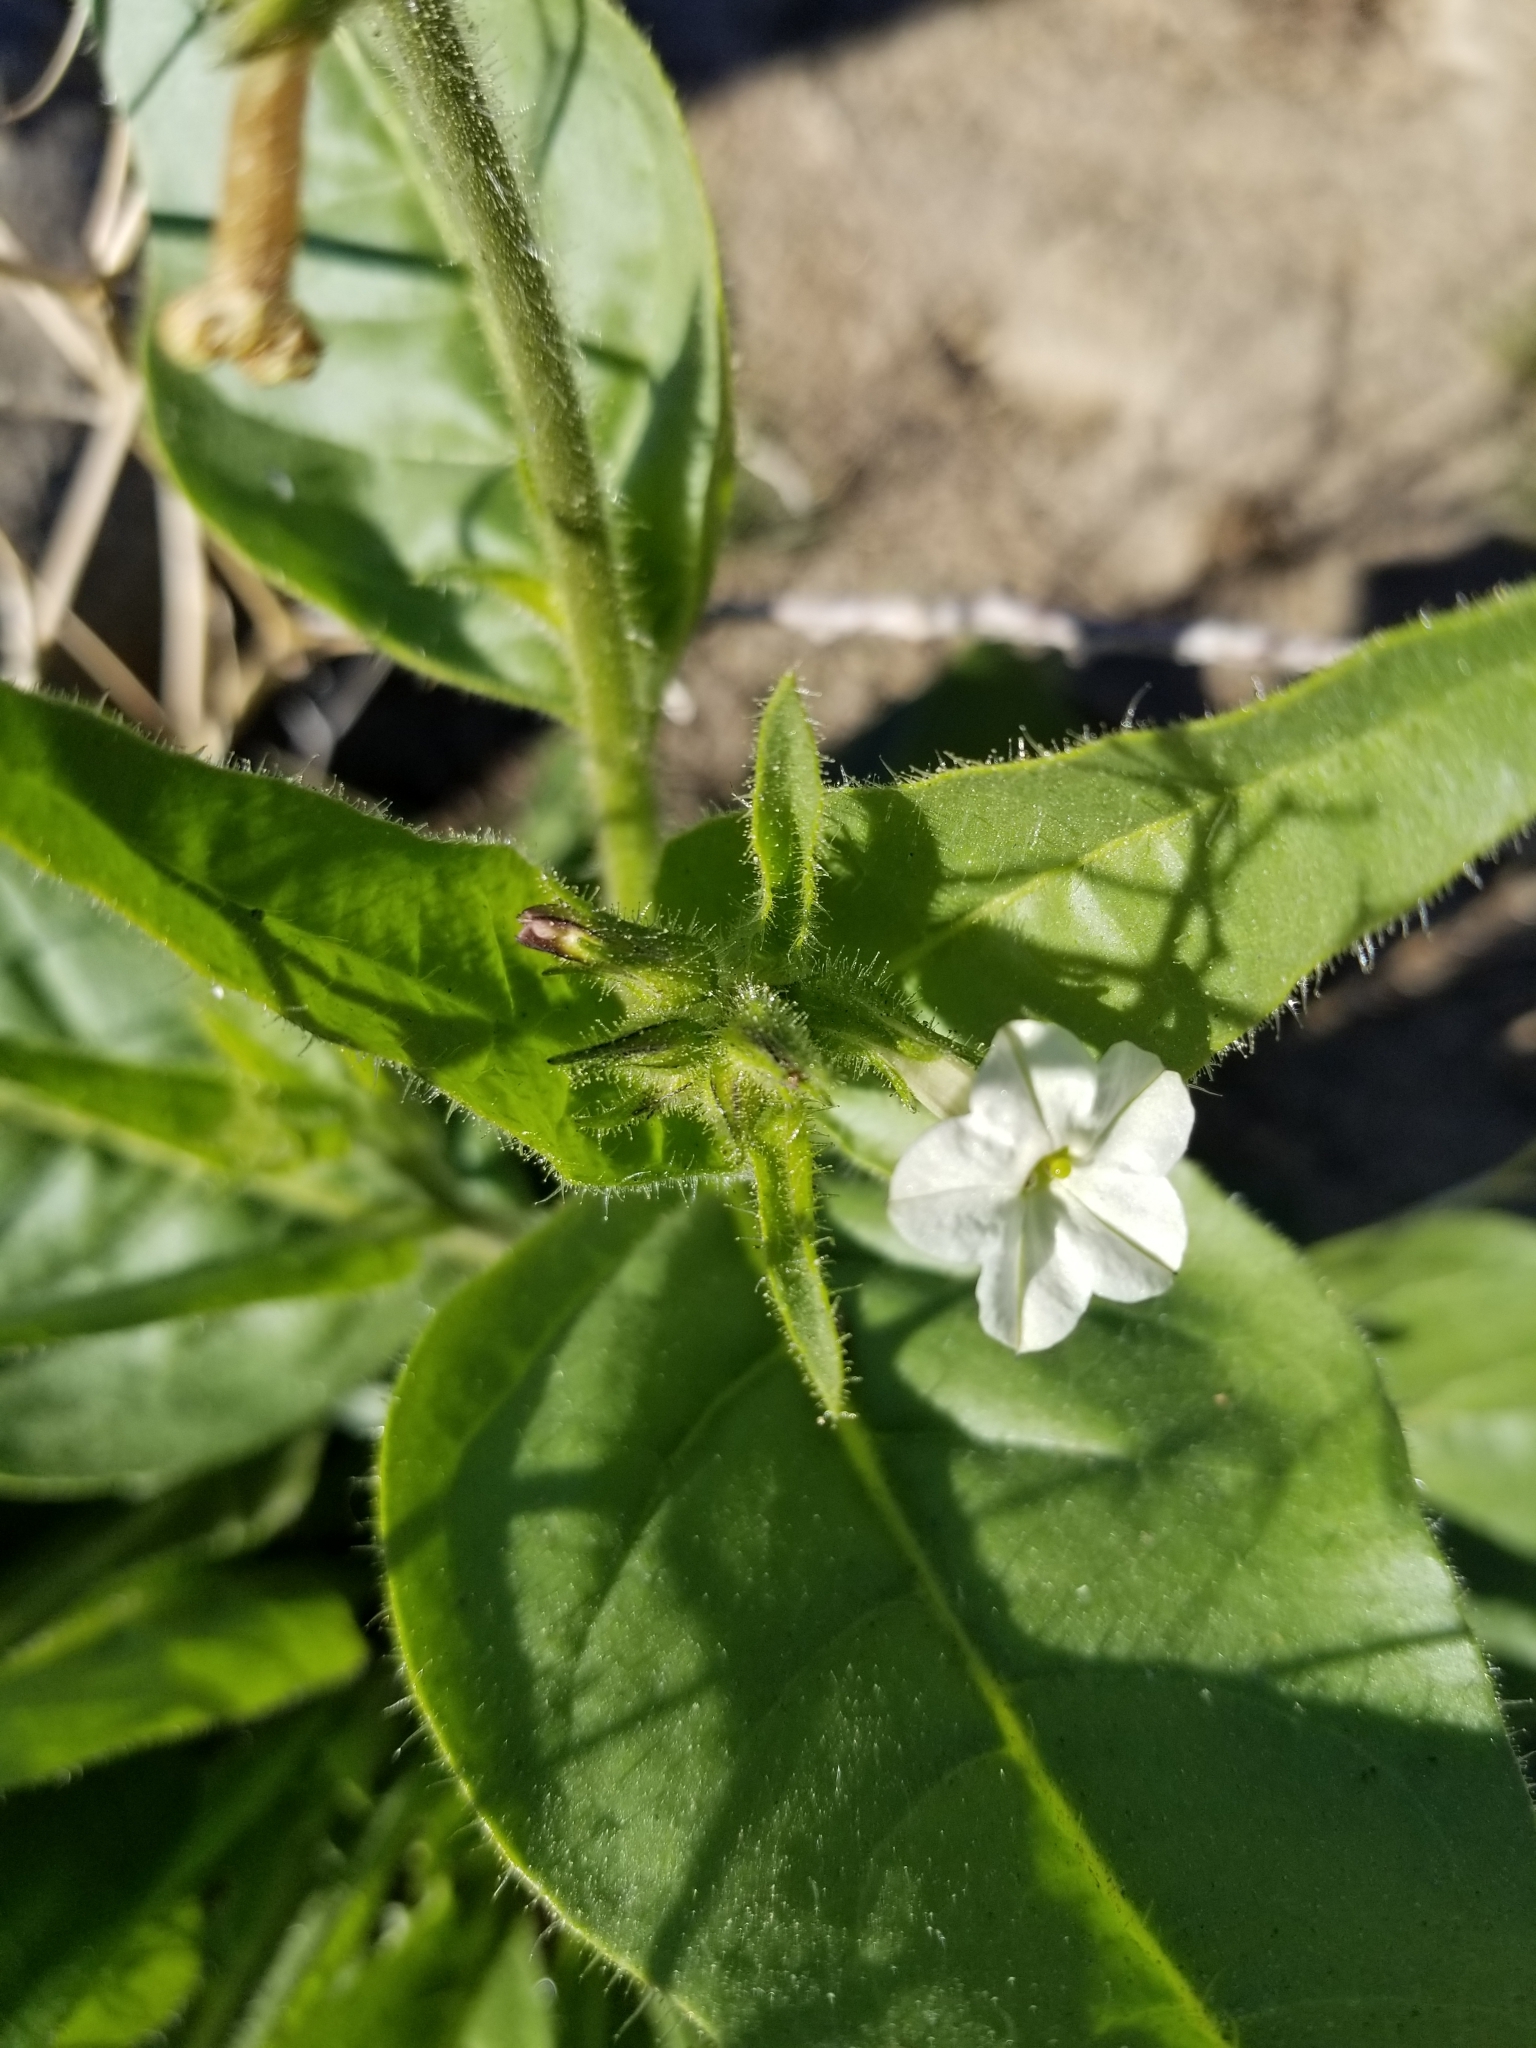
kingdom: Plantae
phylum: Tracheophyta
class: Magnoliopsida
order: Solanales
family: Solanaceae
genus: Nicotiana
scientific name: Nicotiana obtusifolia
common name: Desert tobacco
